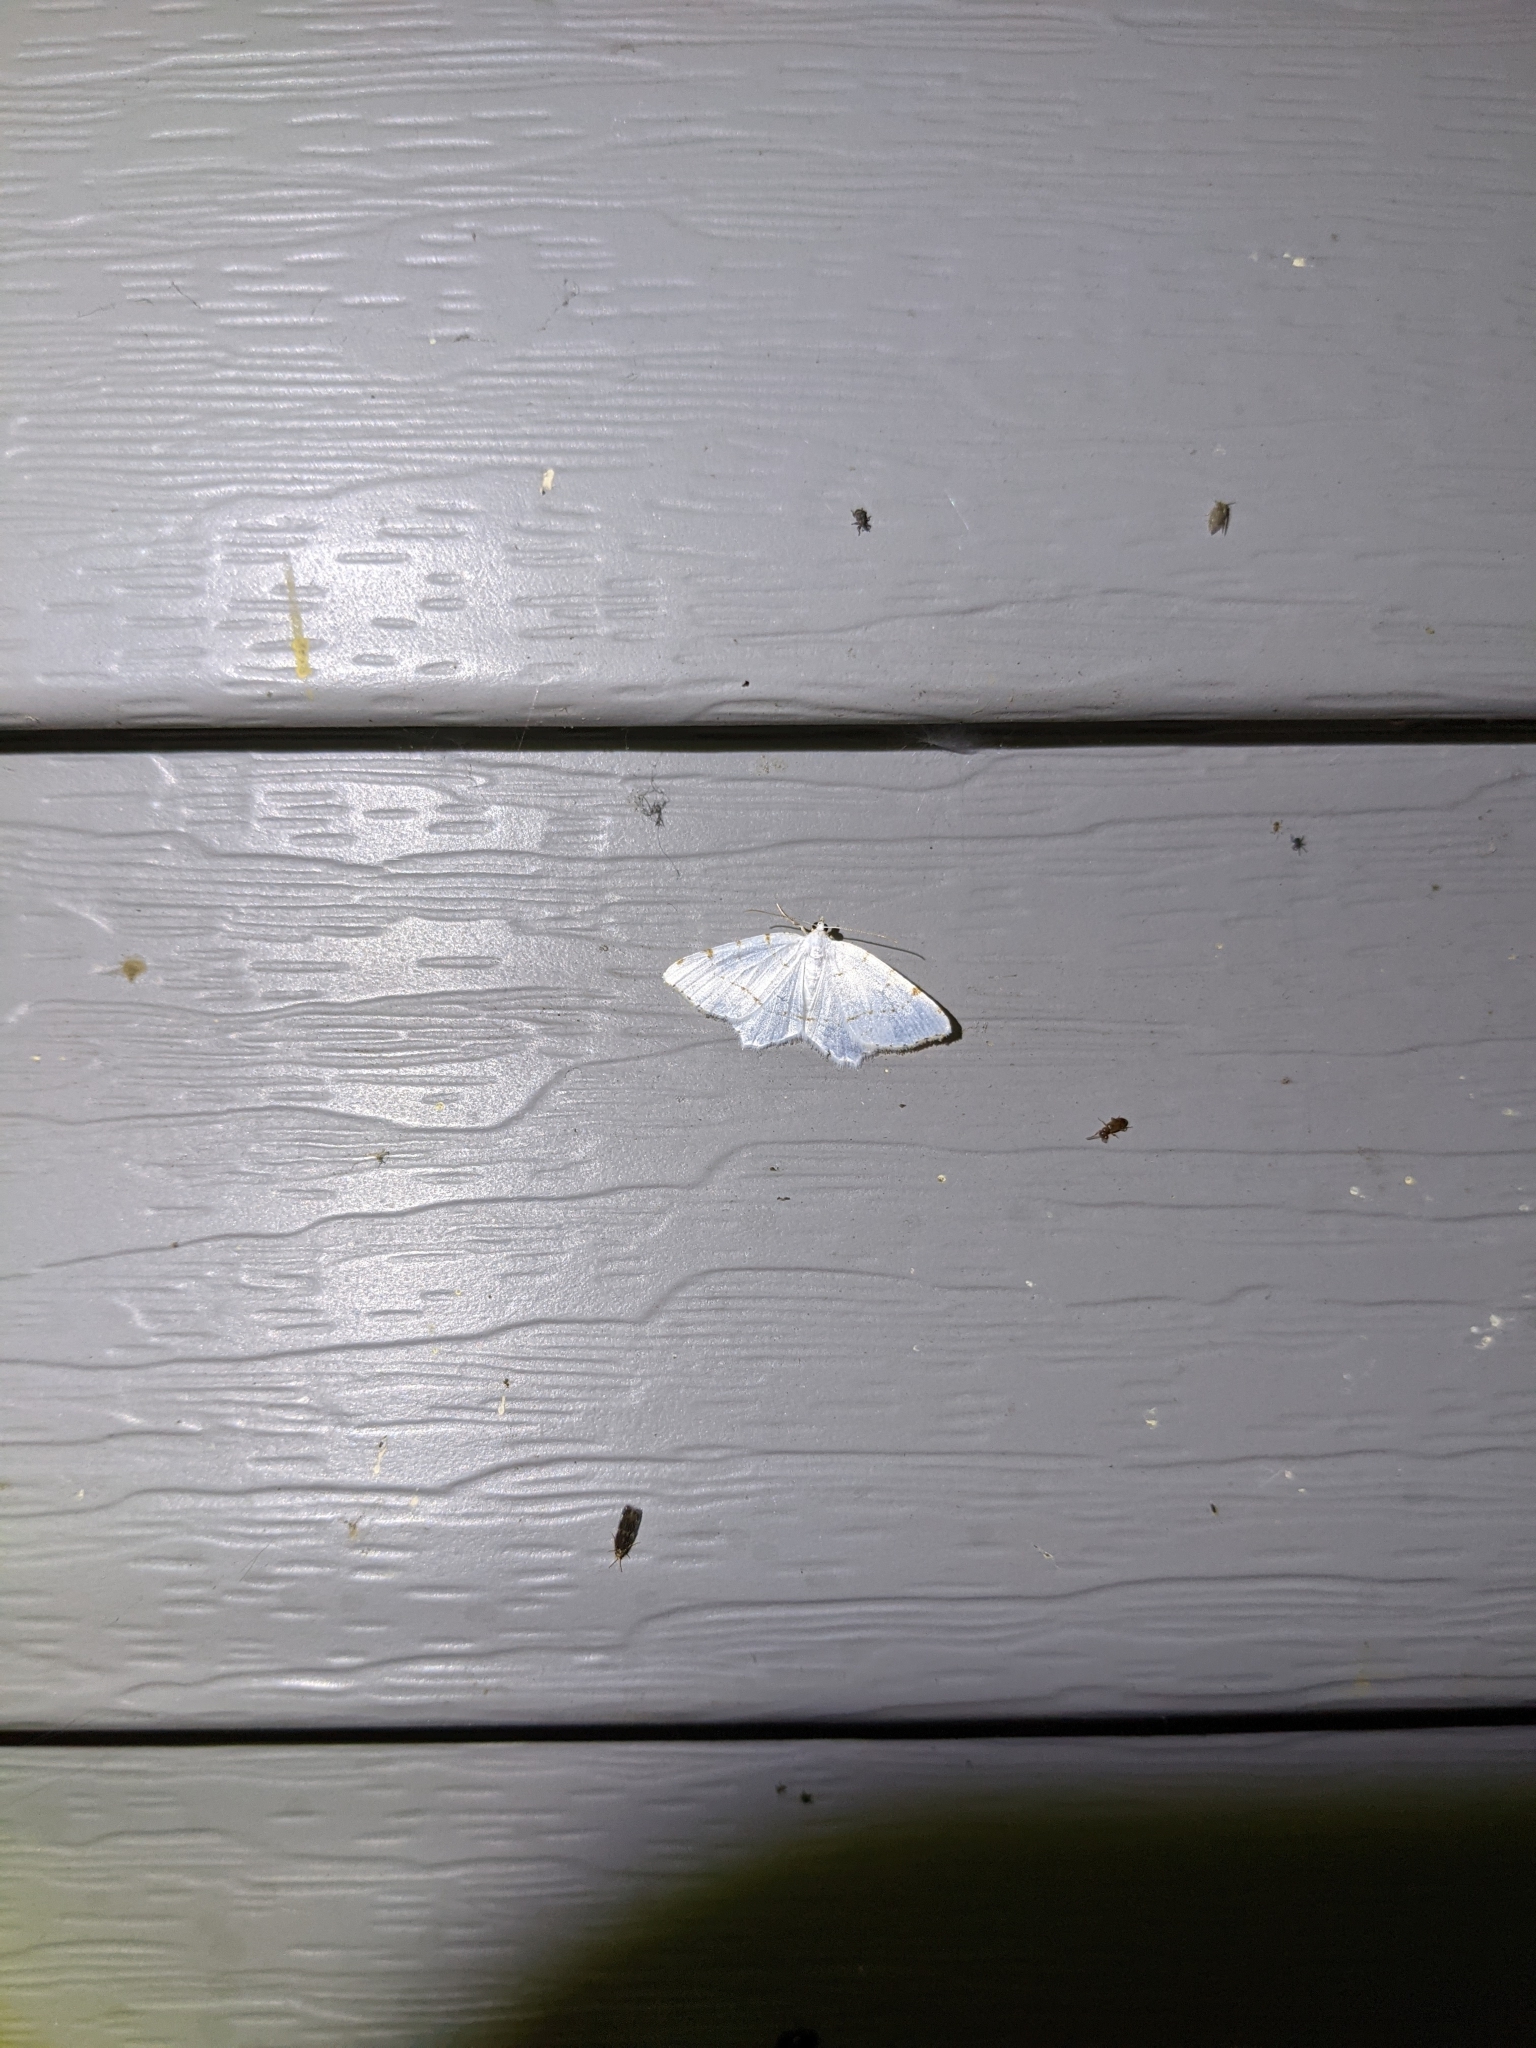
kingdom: Animalia
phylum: Arthropoda
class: Insecta
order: Lepidoptera
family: Geometridae
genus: Macaria
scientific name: Macaria pustularia
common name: Lesser maple spanworm moth
